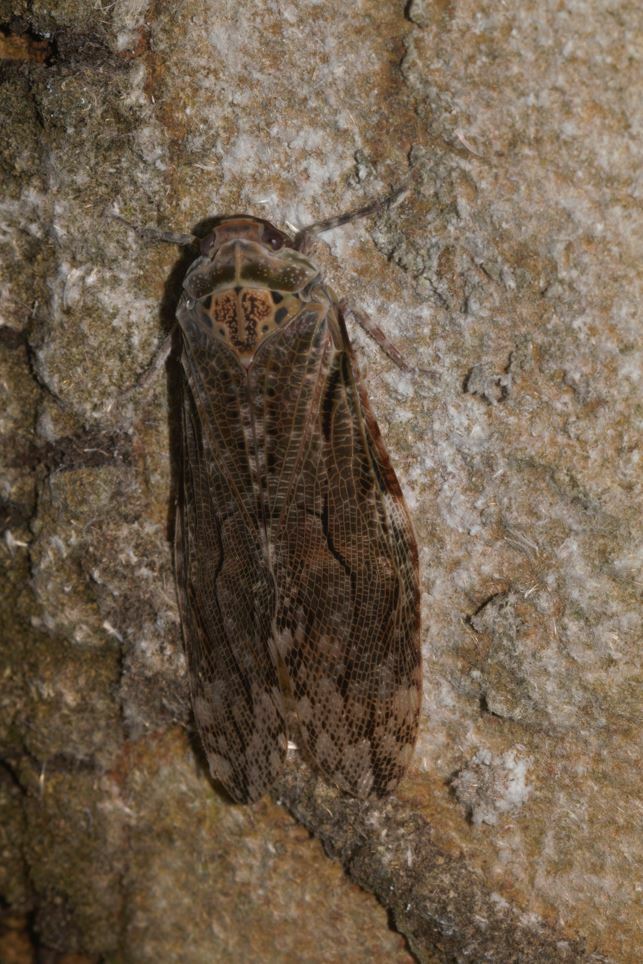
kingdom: Animalia
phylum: Arthropoda
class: Insecta
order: Hemiptera
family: Fulgoridae
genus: Aracynthus
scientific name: Aracynthus sanguineus
